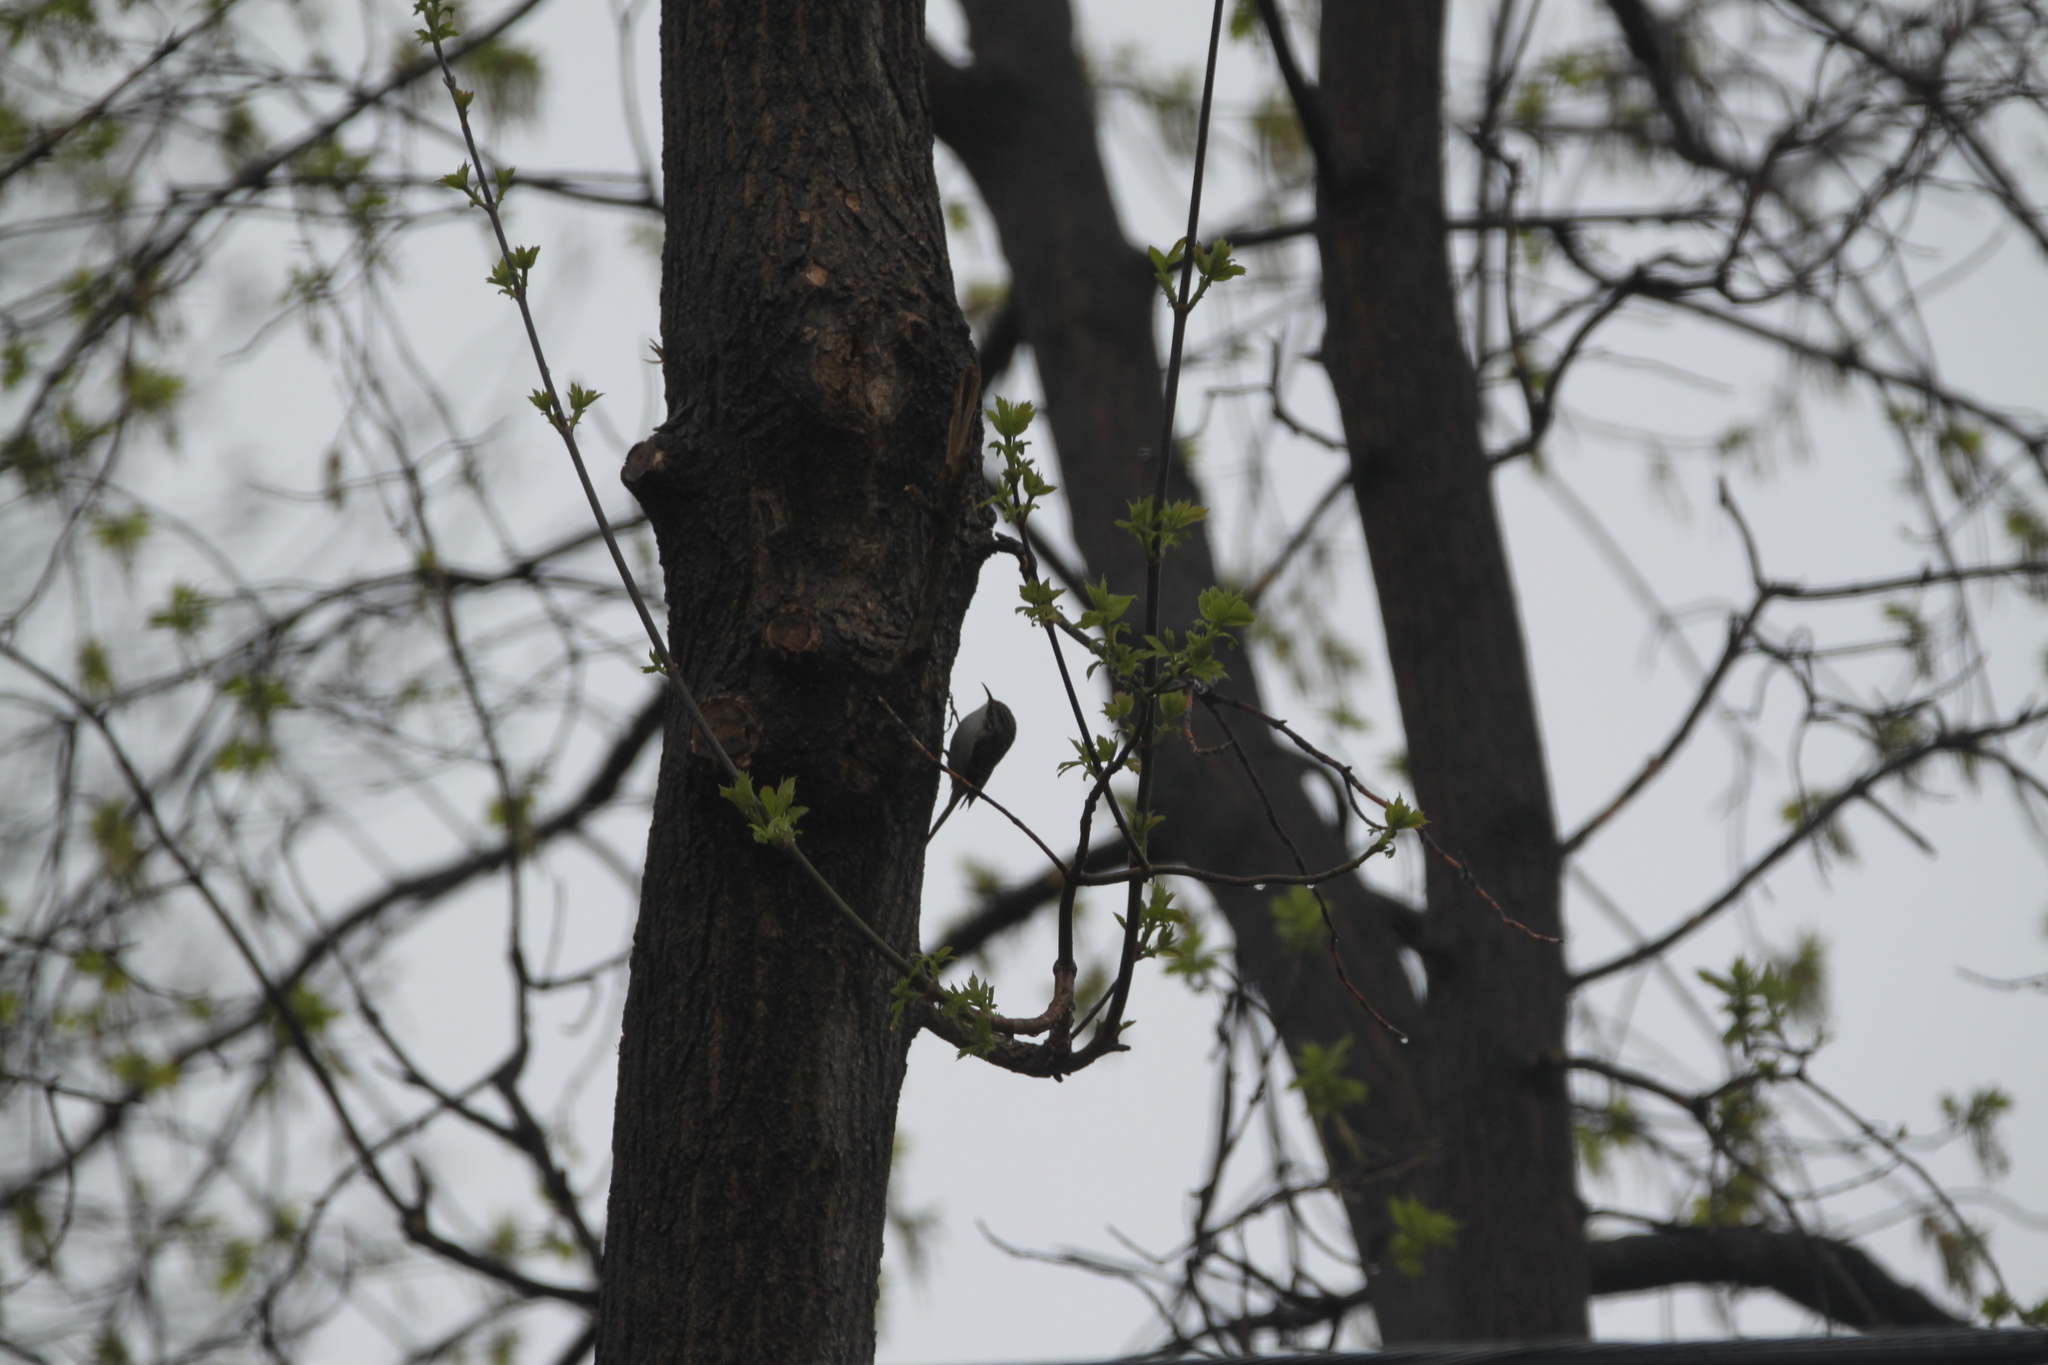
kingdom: Animalia
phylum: Chordata
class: Aves
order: Passeriformes
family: Certhiidae
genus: Certhia
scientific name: Certhia americana
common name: Brown creeper
